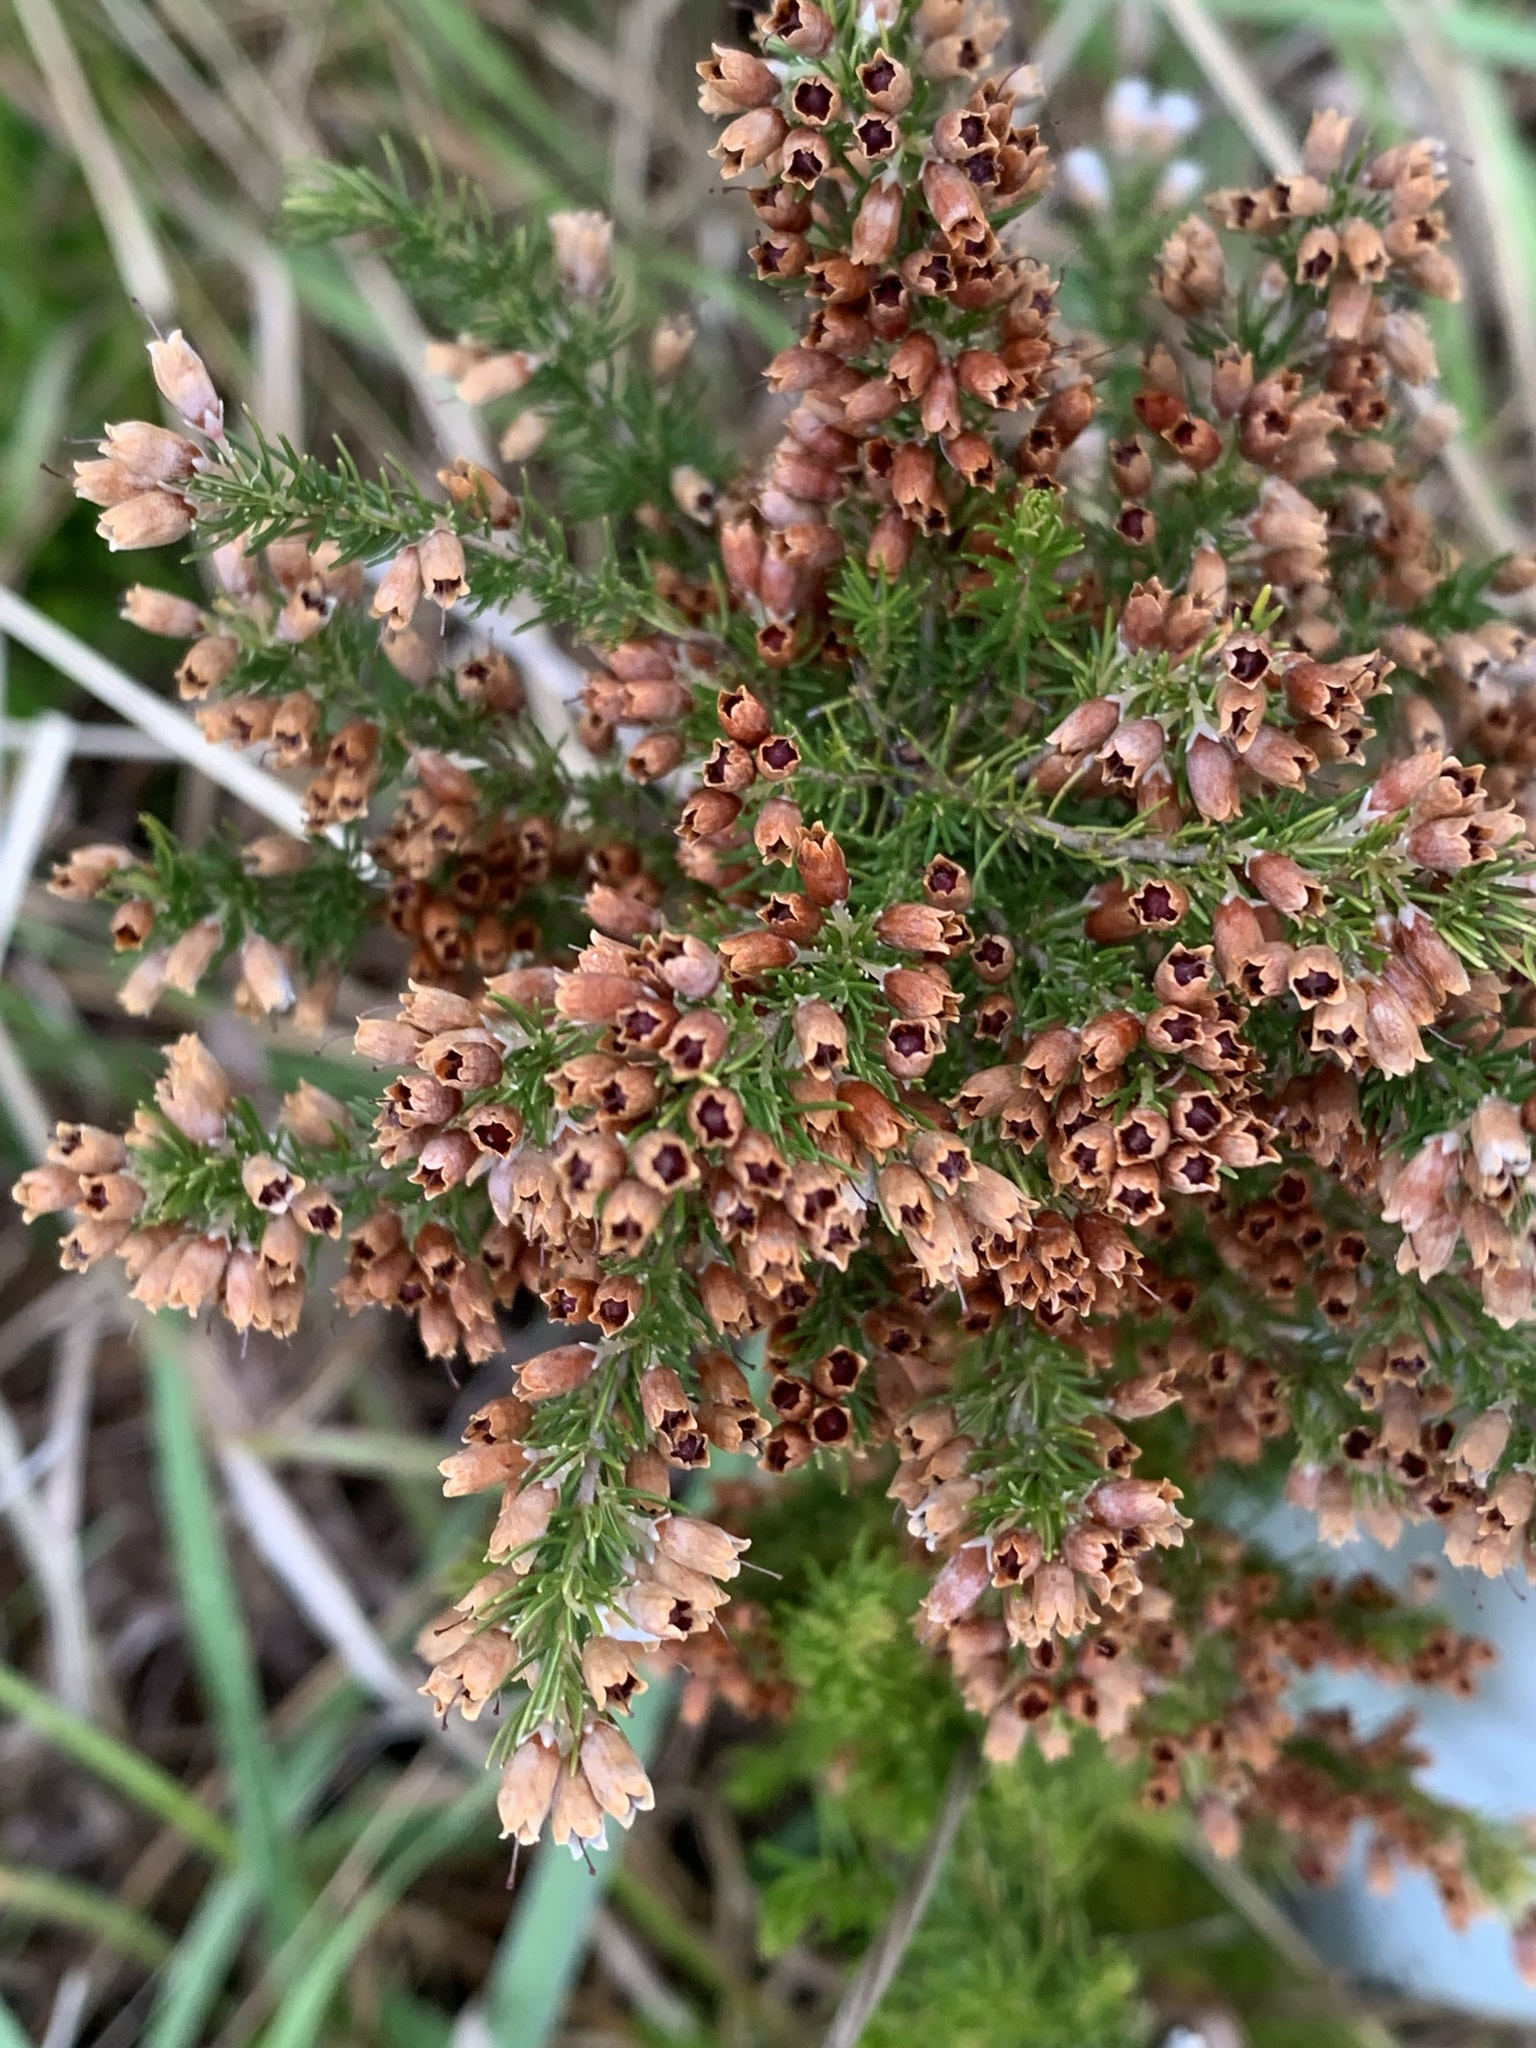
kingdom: Plantae
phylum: Tracheophyta
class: Magnoliopsida
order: Ericales
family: Ericaceae
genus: Erica
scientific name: Erica lusitanica
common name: Spanish heath
